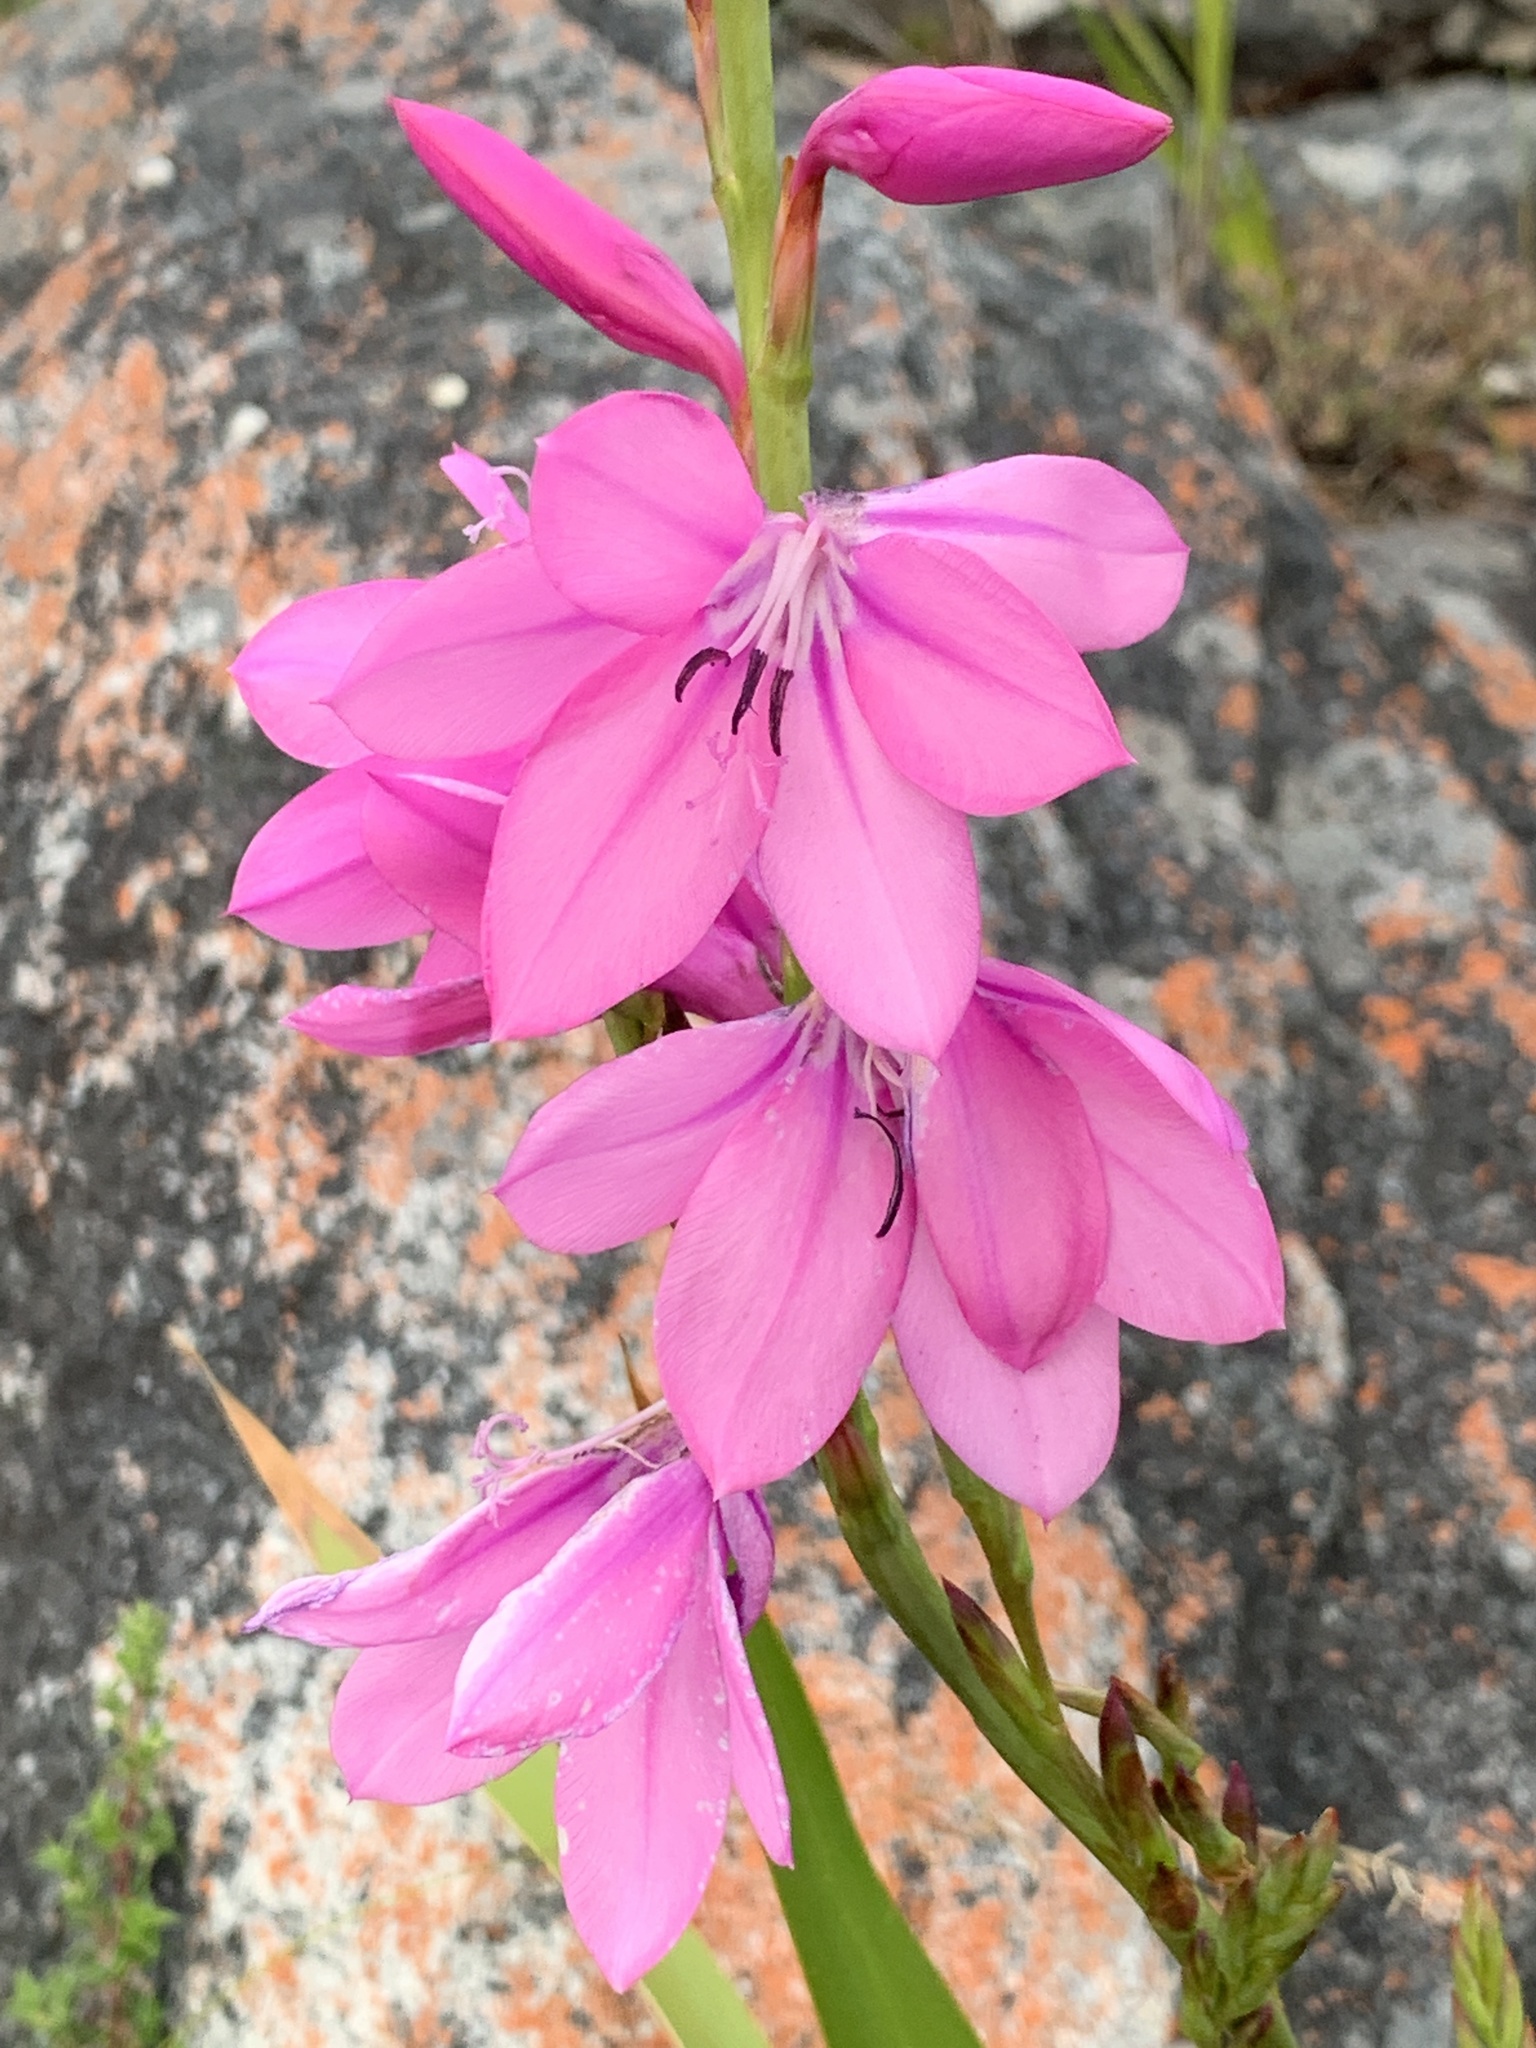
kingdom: Plantae
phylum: Tracheophyta
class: Liliopsida
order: Asparagales
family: Iridaceae
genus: Watsonia
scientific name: Watsonia borbonica
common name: Bugle-lily
